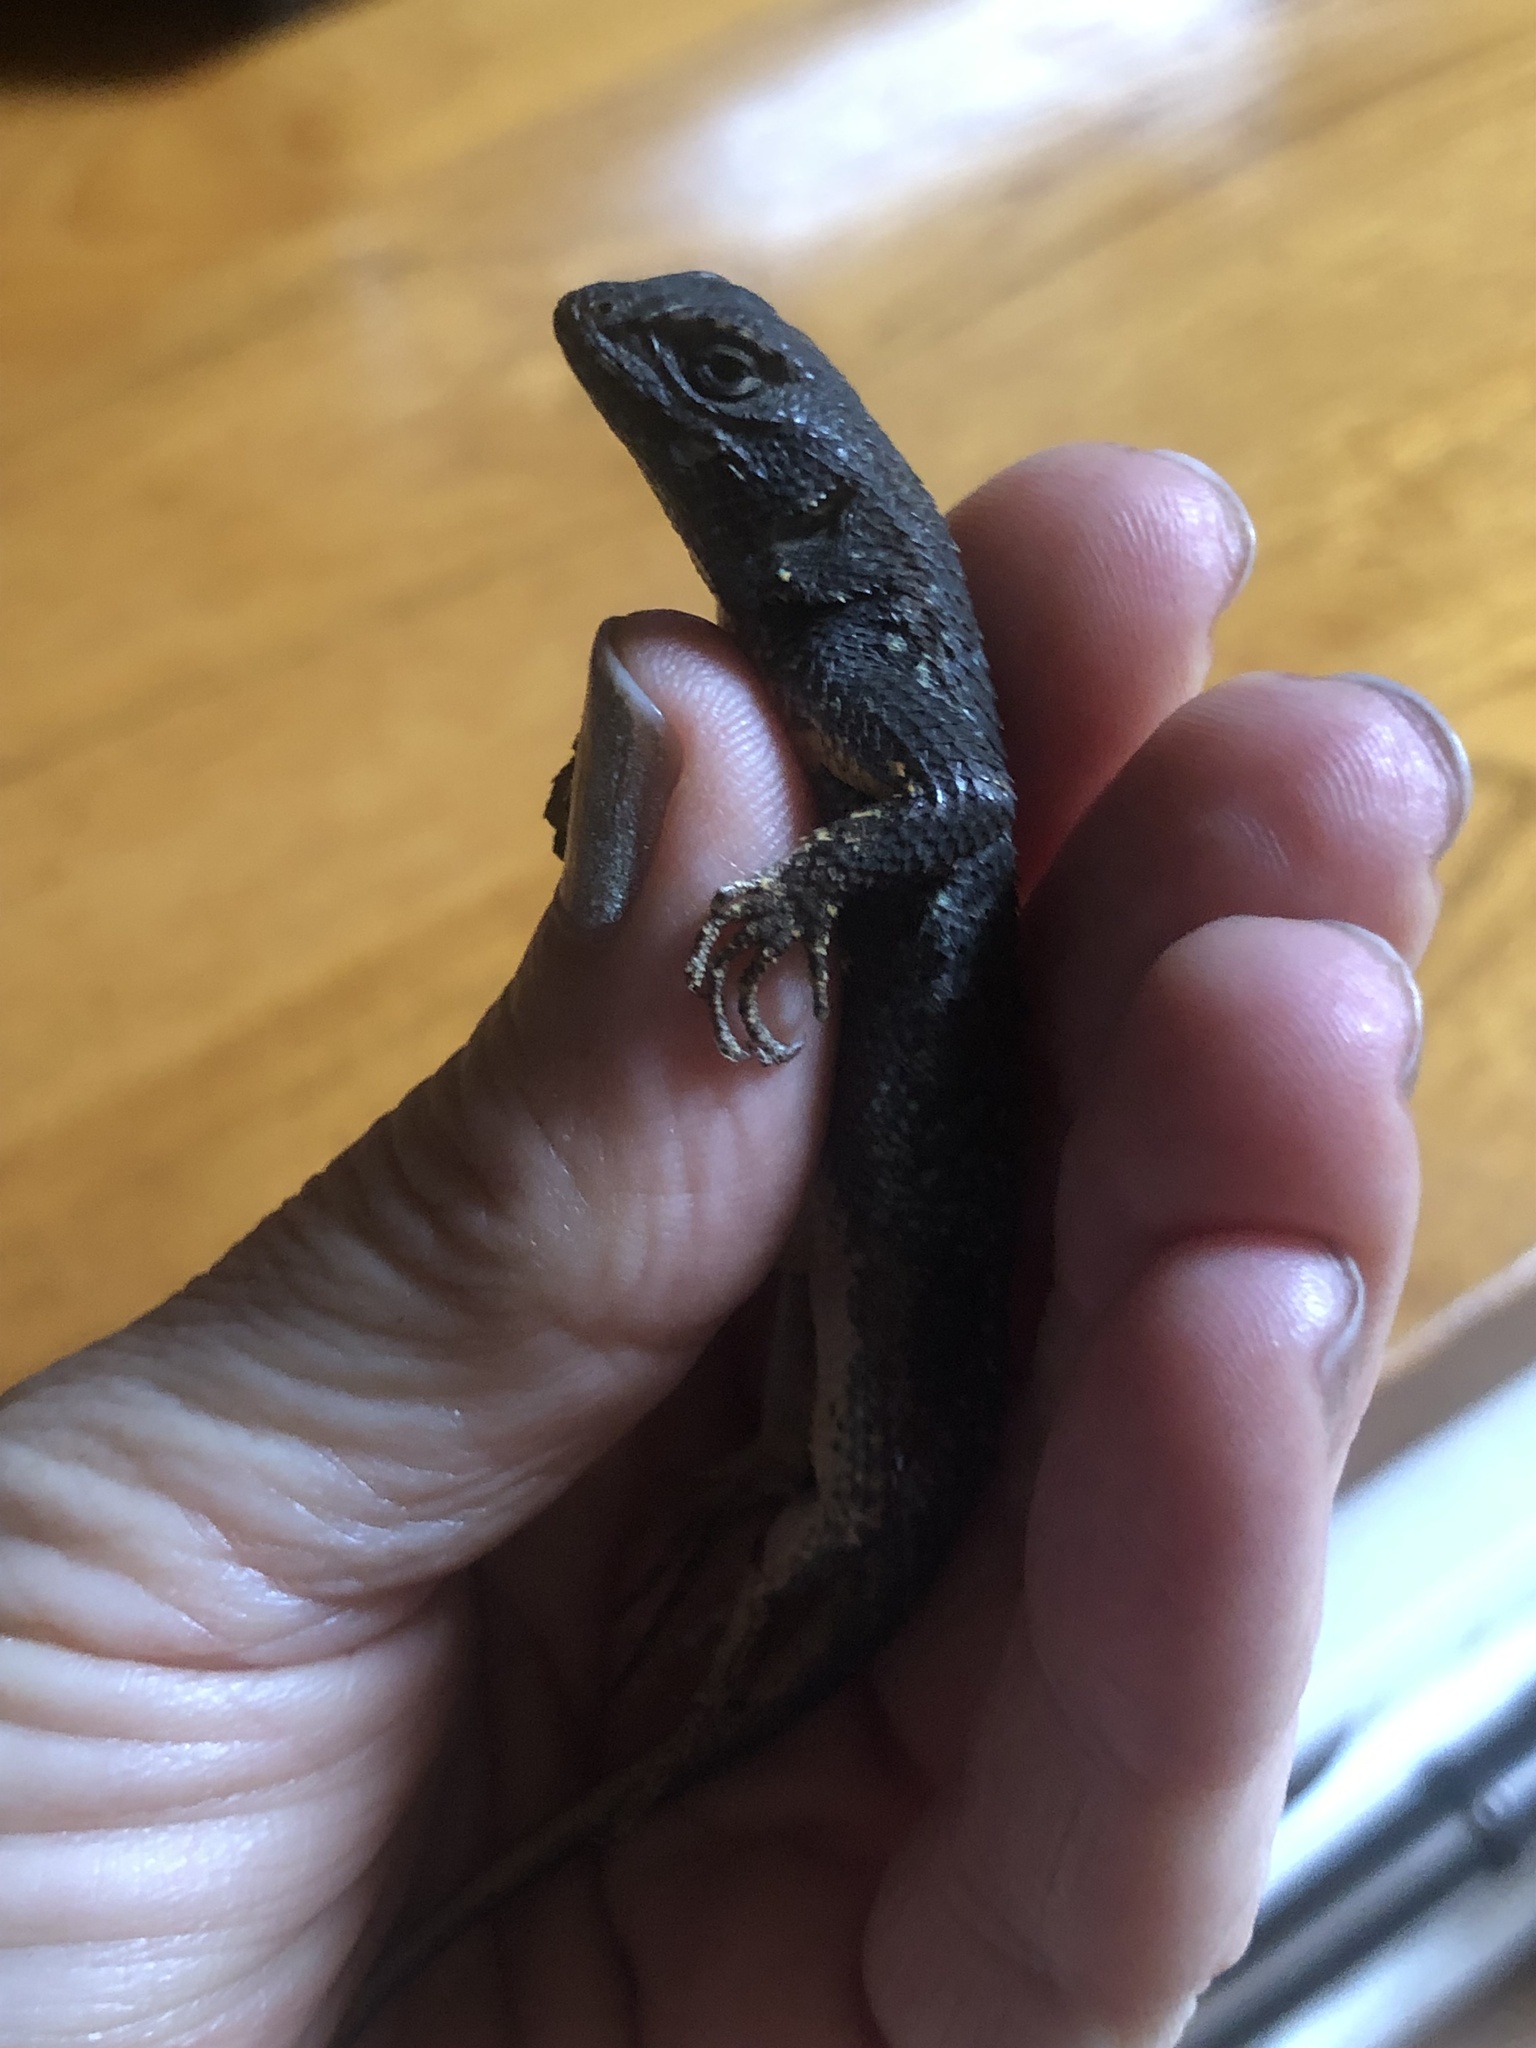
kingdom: Animalia
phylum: Chordata
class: Squamata
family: Phrynosomatidae
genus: Sceloporus
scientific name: Sceloporus occidentalis
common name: Western fence lizard
